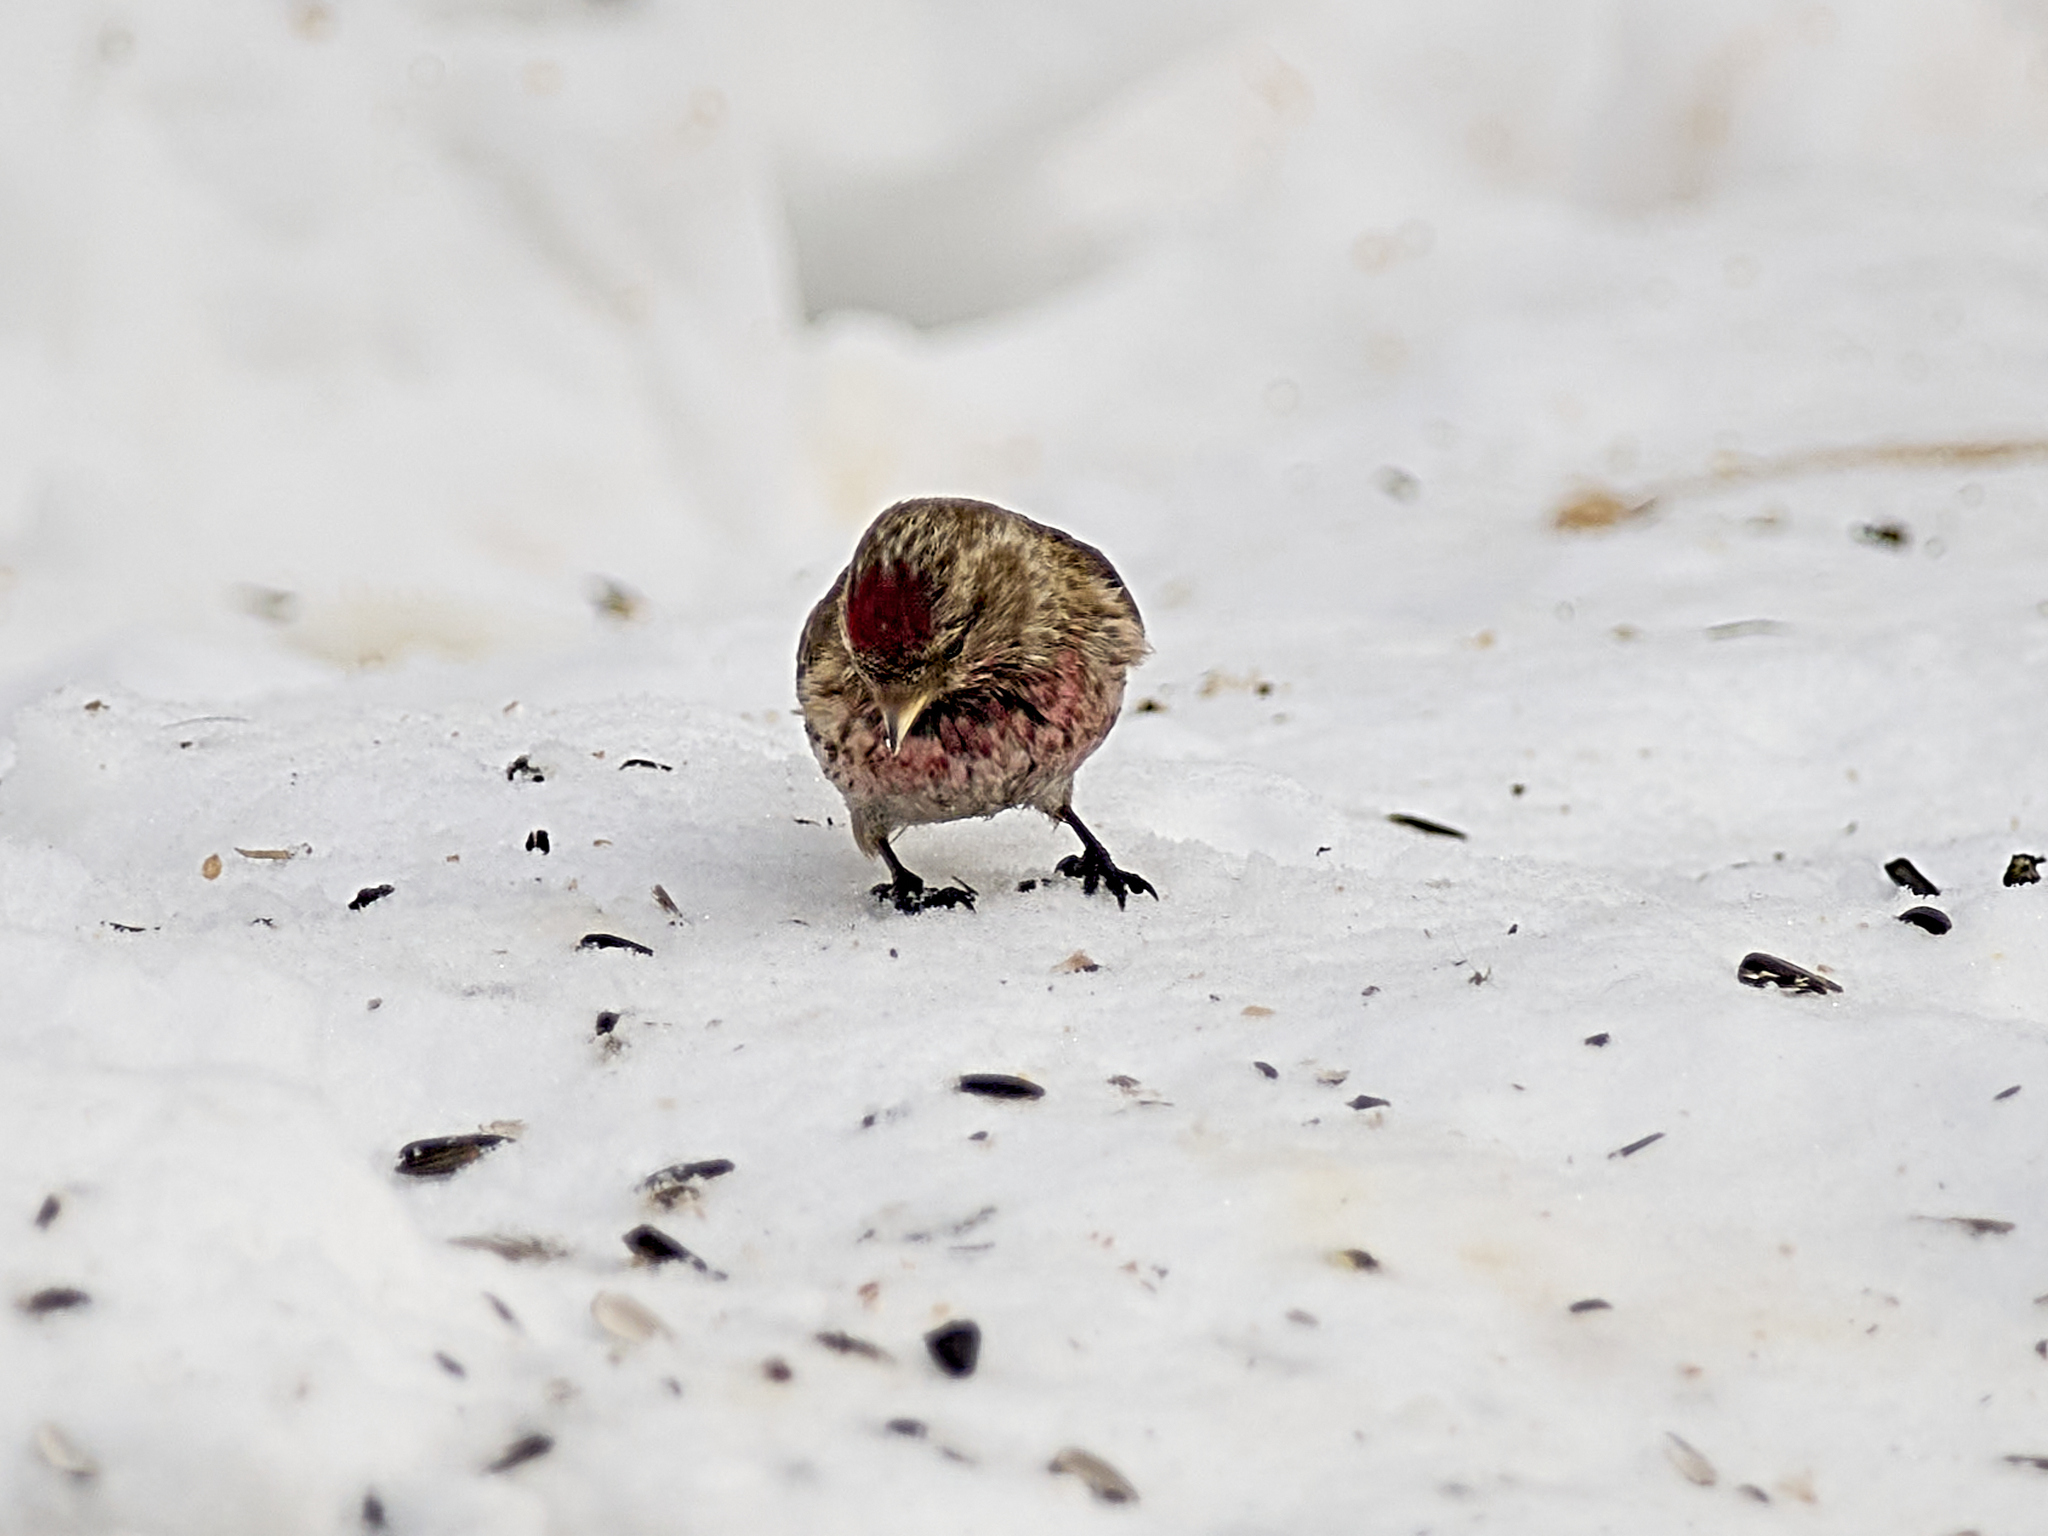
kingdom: Animalia
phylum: Chordata
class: Aves
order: Passeriformes
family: Fringillidae
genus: Acanthis
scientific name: Acanthis flammea
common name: Common redpoll
